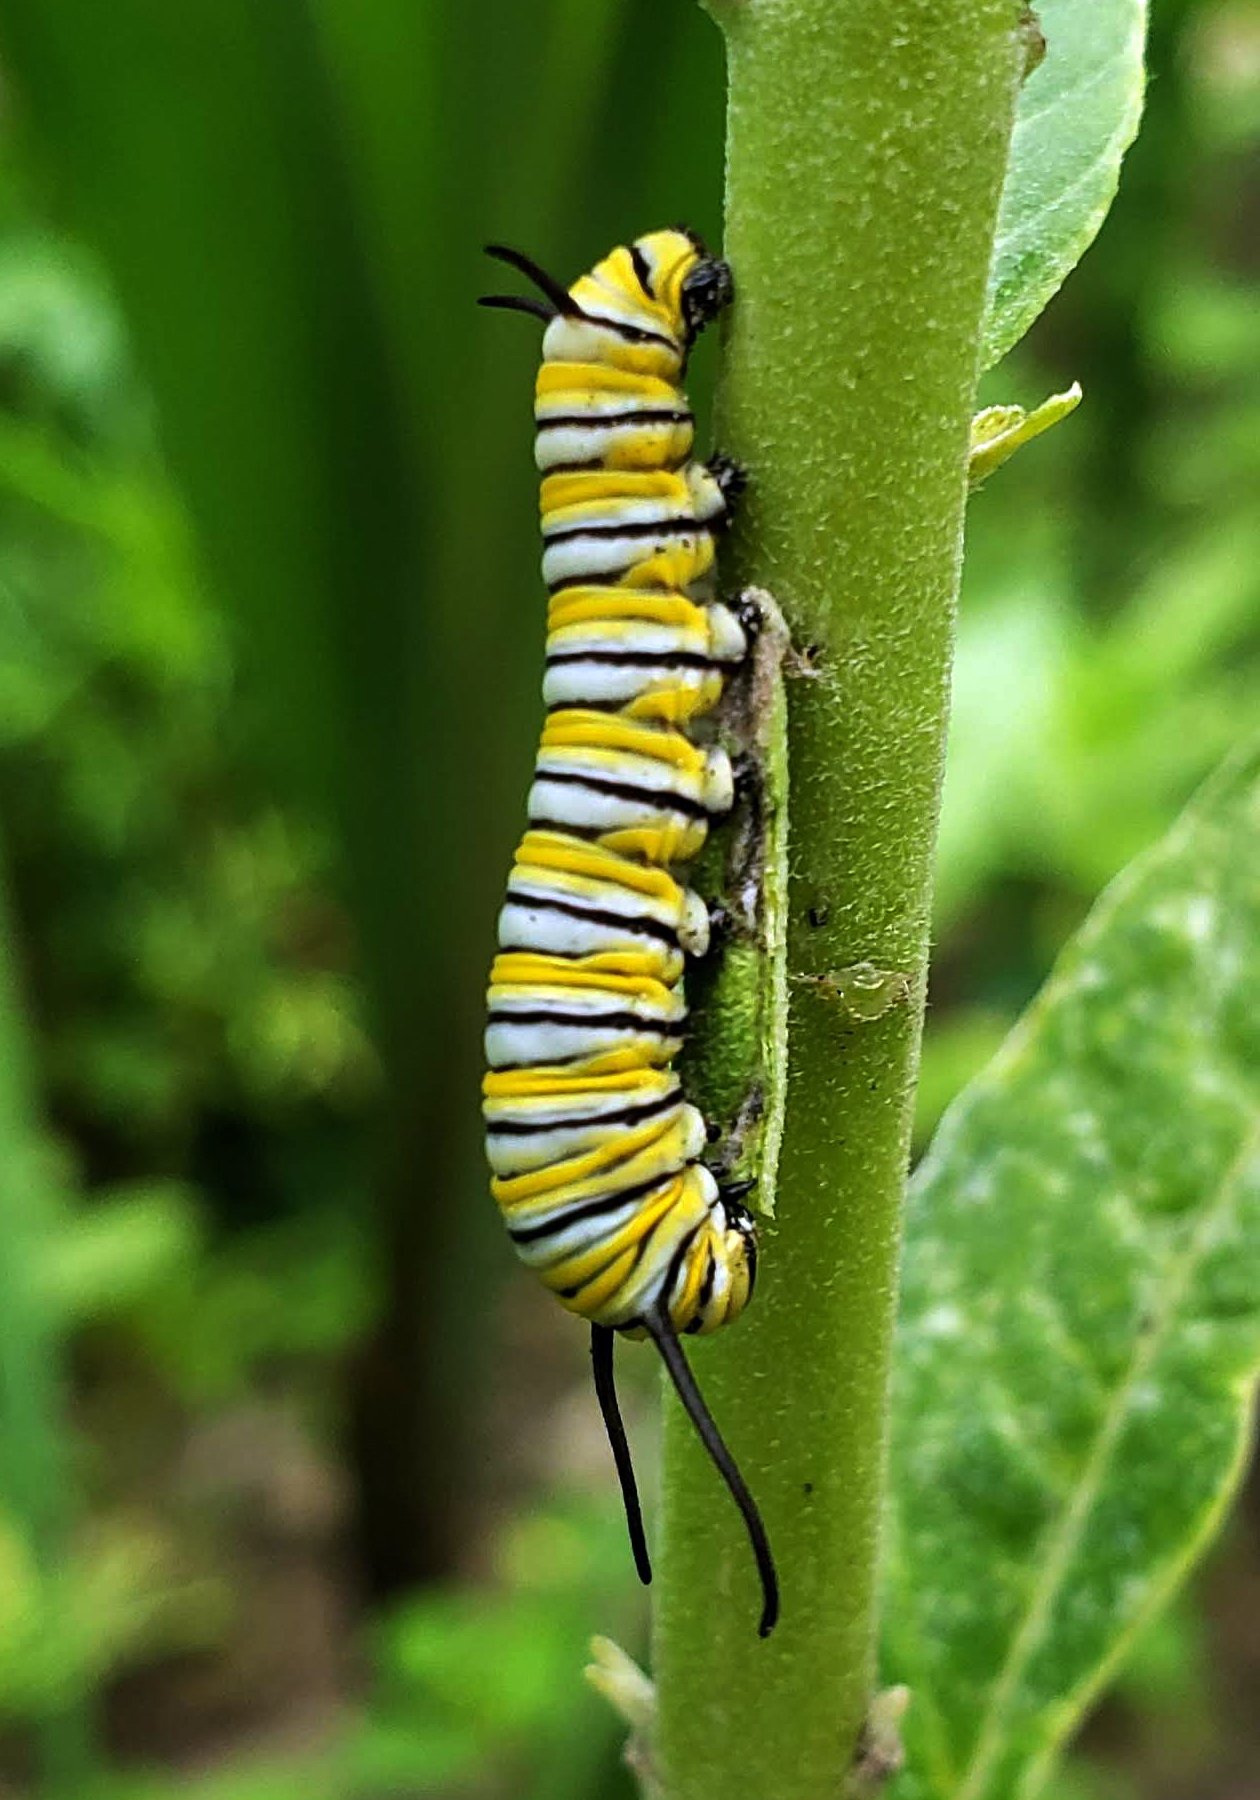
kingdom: Animalia
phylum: Arthropoda
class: Insecta
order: Lepidoptera
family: Nymphalidae
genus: Danaus
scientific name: Danaus plexippus
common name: Monarch
